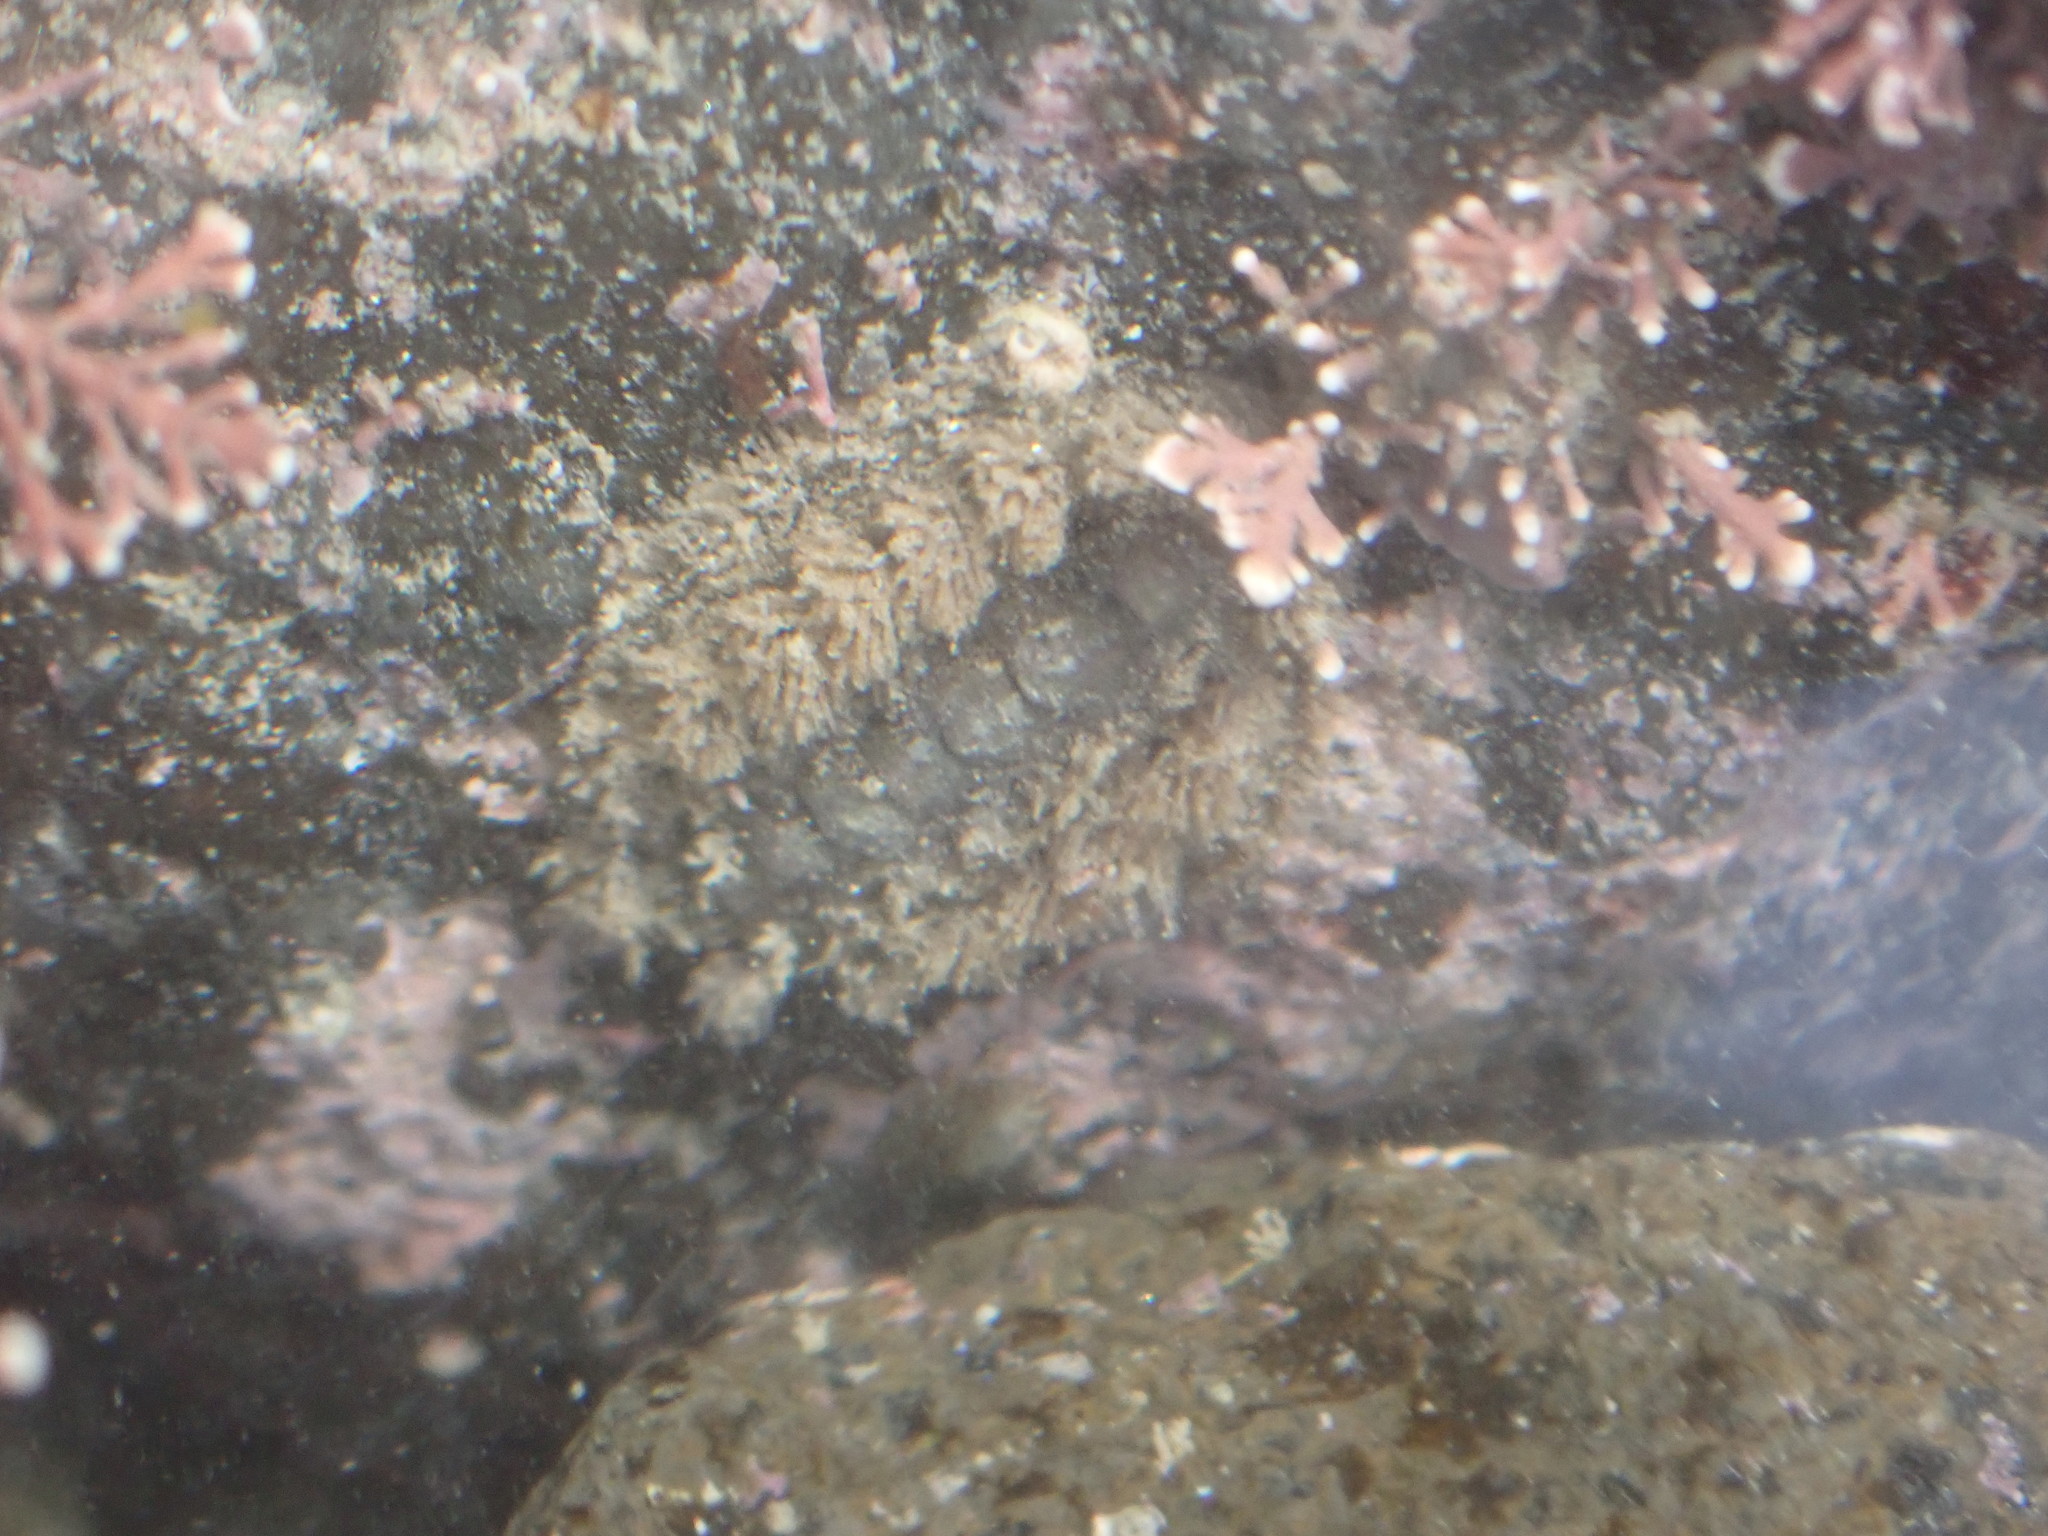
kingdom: Animalia
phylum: Mollusca
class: Polyplacophora
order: Chitonida
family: Acanthochitonidae
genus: Acanthochitona
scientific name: Acanthochitona zelandica
